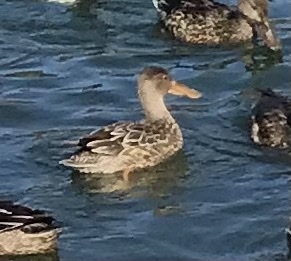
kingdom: Animalia
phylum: Chordata
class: Aves
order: Anseriformes
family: Anatidae
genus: Spatula
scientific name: Spatula clypeata
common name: Northern shoveler
